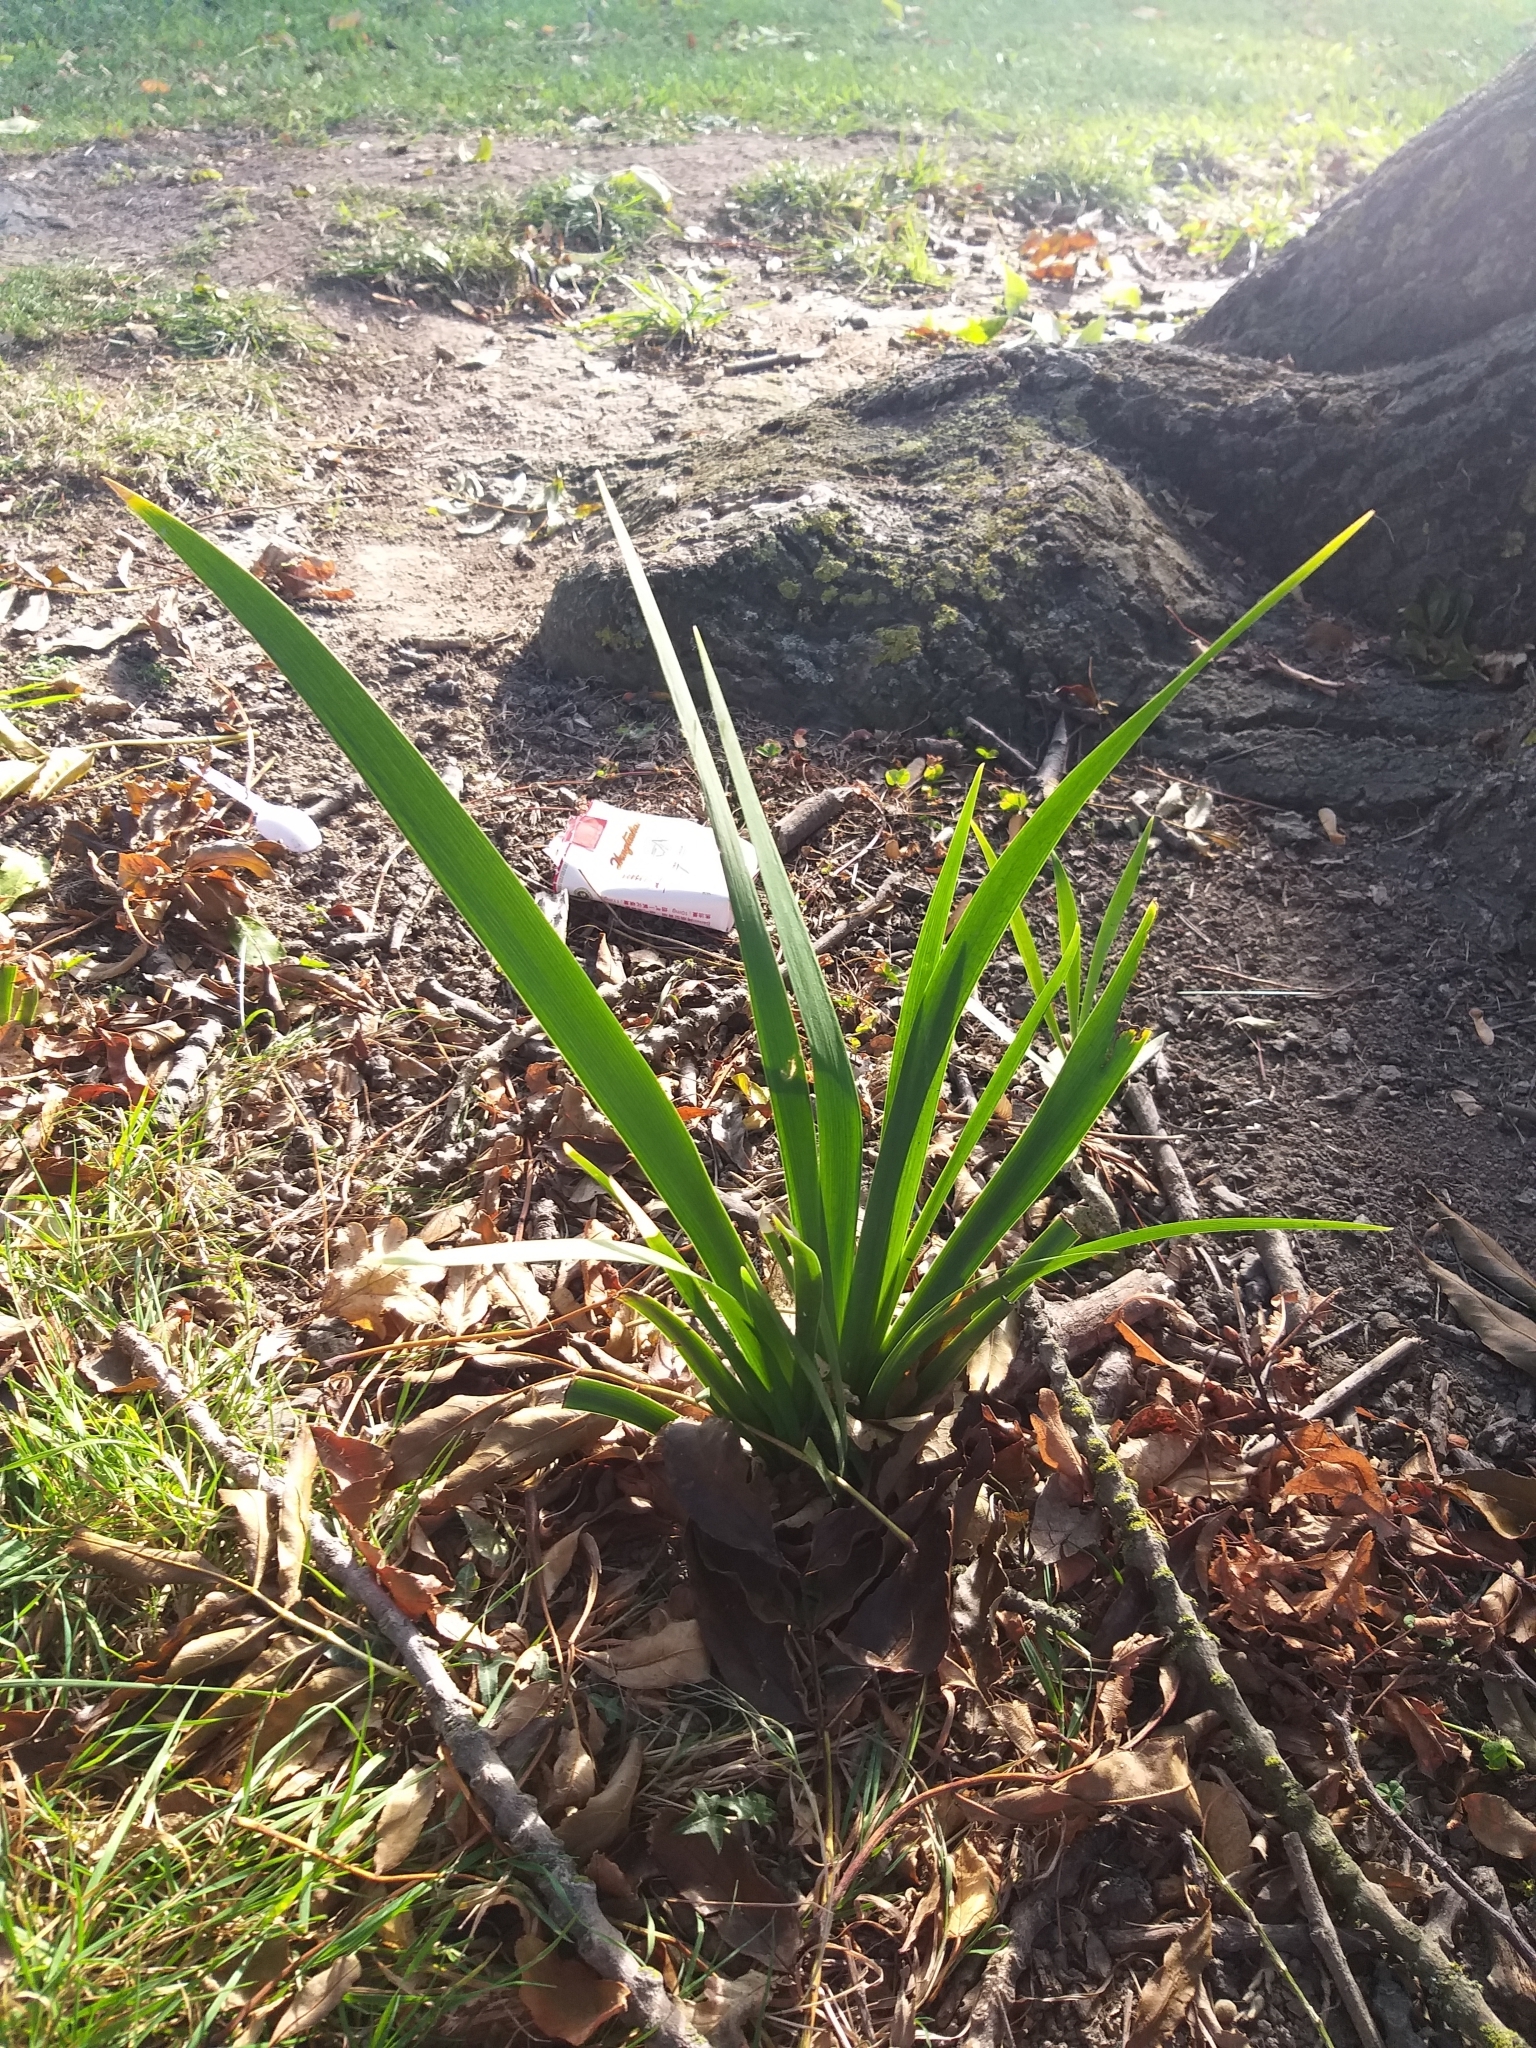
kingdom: Plantae
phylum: Tracheophyta
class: Liliopsida
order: Asparagales
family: Iridaceae
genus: Iris
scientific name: Iris foetidissima
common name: Stinking iris
